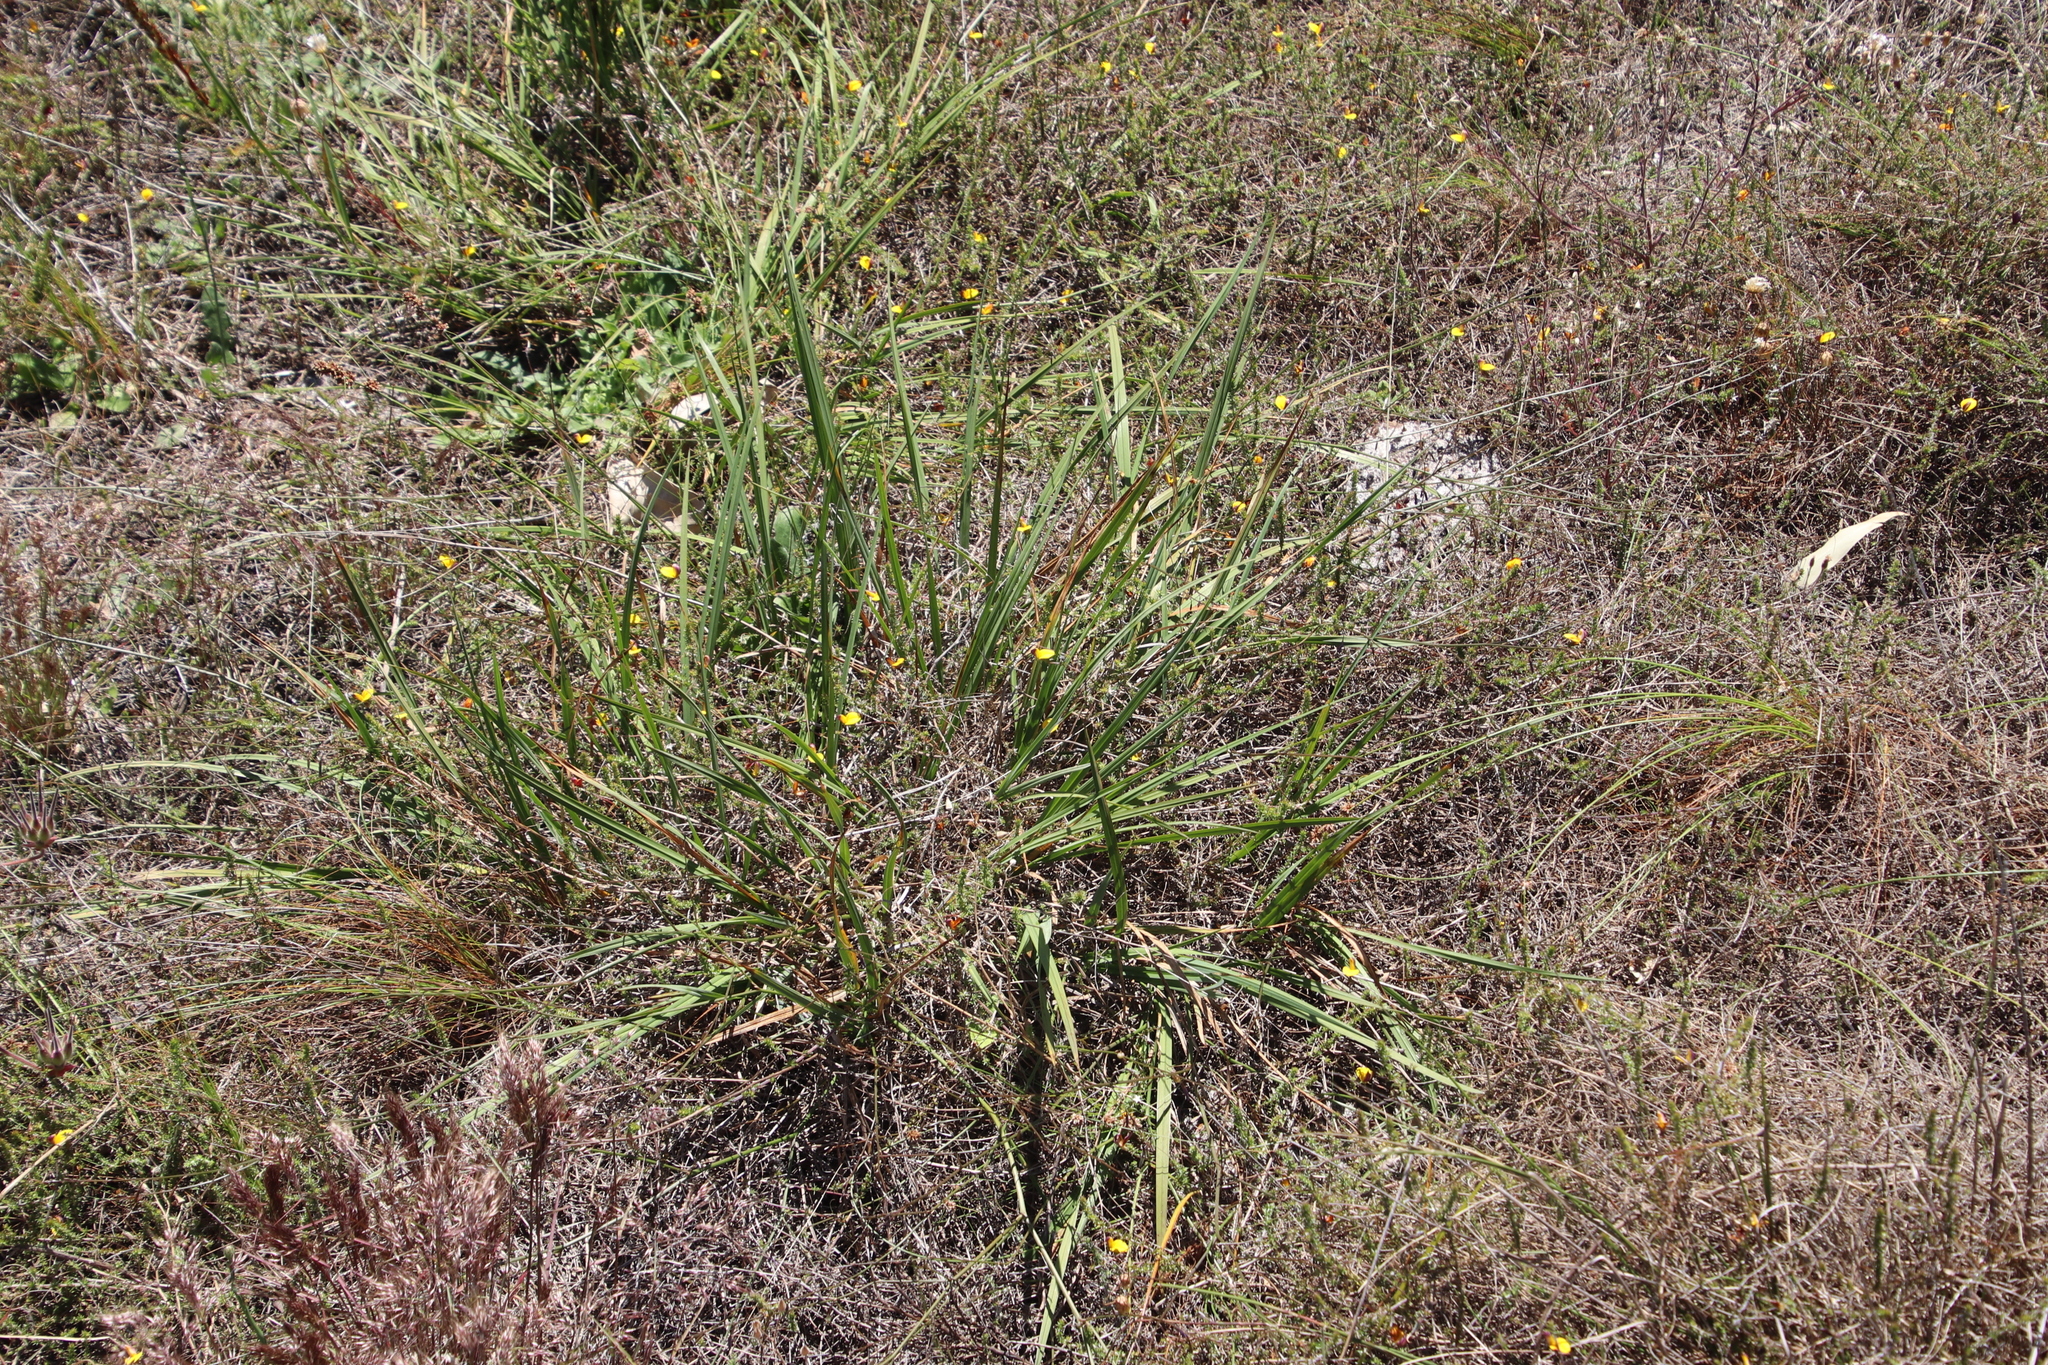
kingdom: Plantae
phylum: Tracheophyta
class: Liliopsida
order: Asparagales
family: Asphodelaceae
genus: Caesia
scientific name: Caesia contorta
